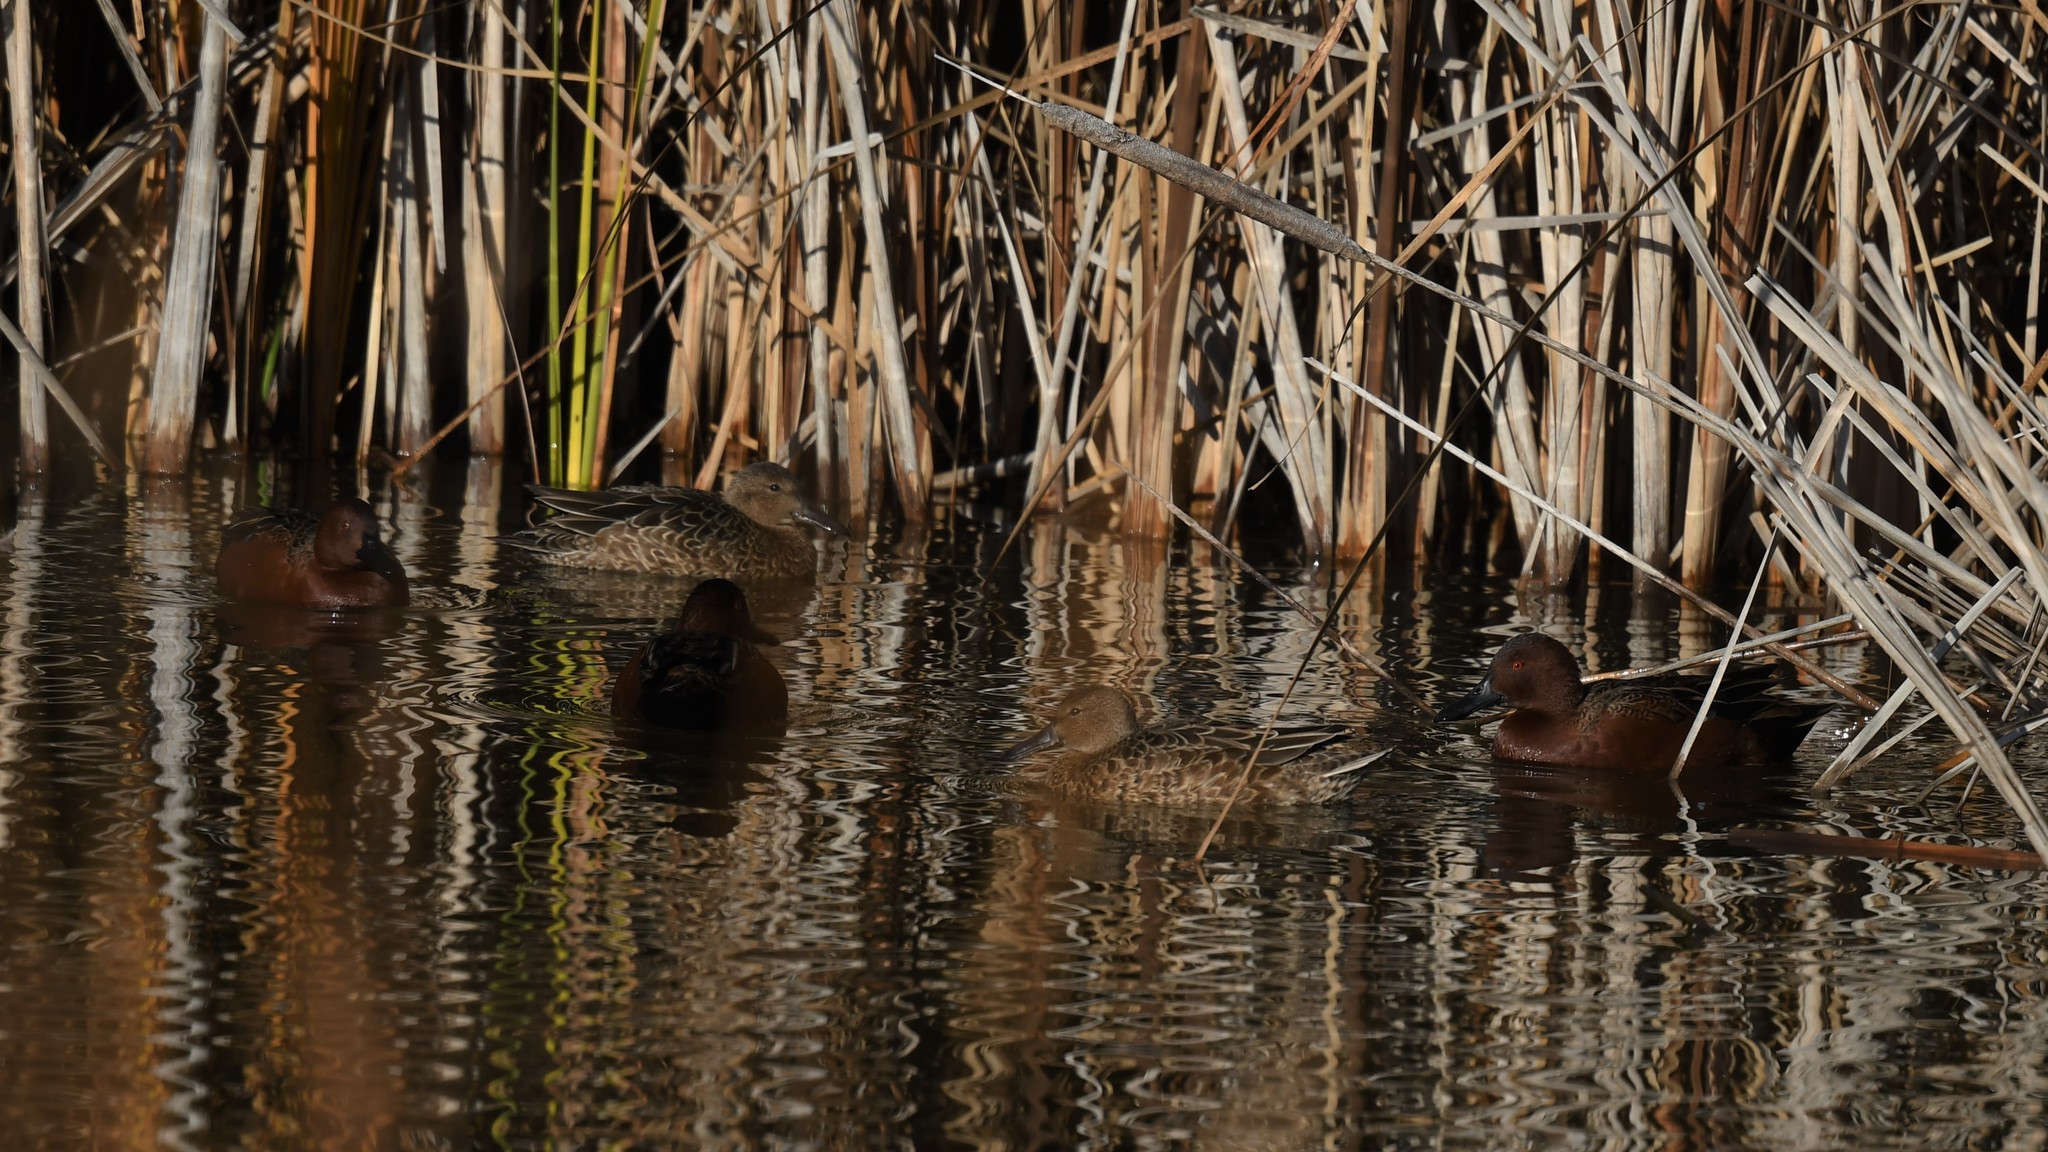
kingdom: Animalia
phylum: Chordata
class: Aves
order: Anseriformes
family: Anatidae
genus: Spatula
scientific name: Spatula cyanoptera
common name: Cinnamon teal
